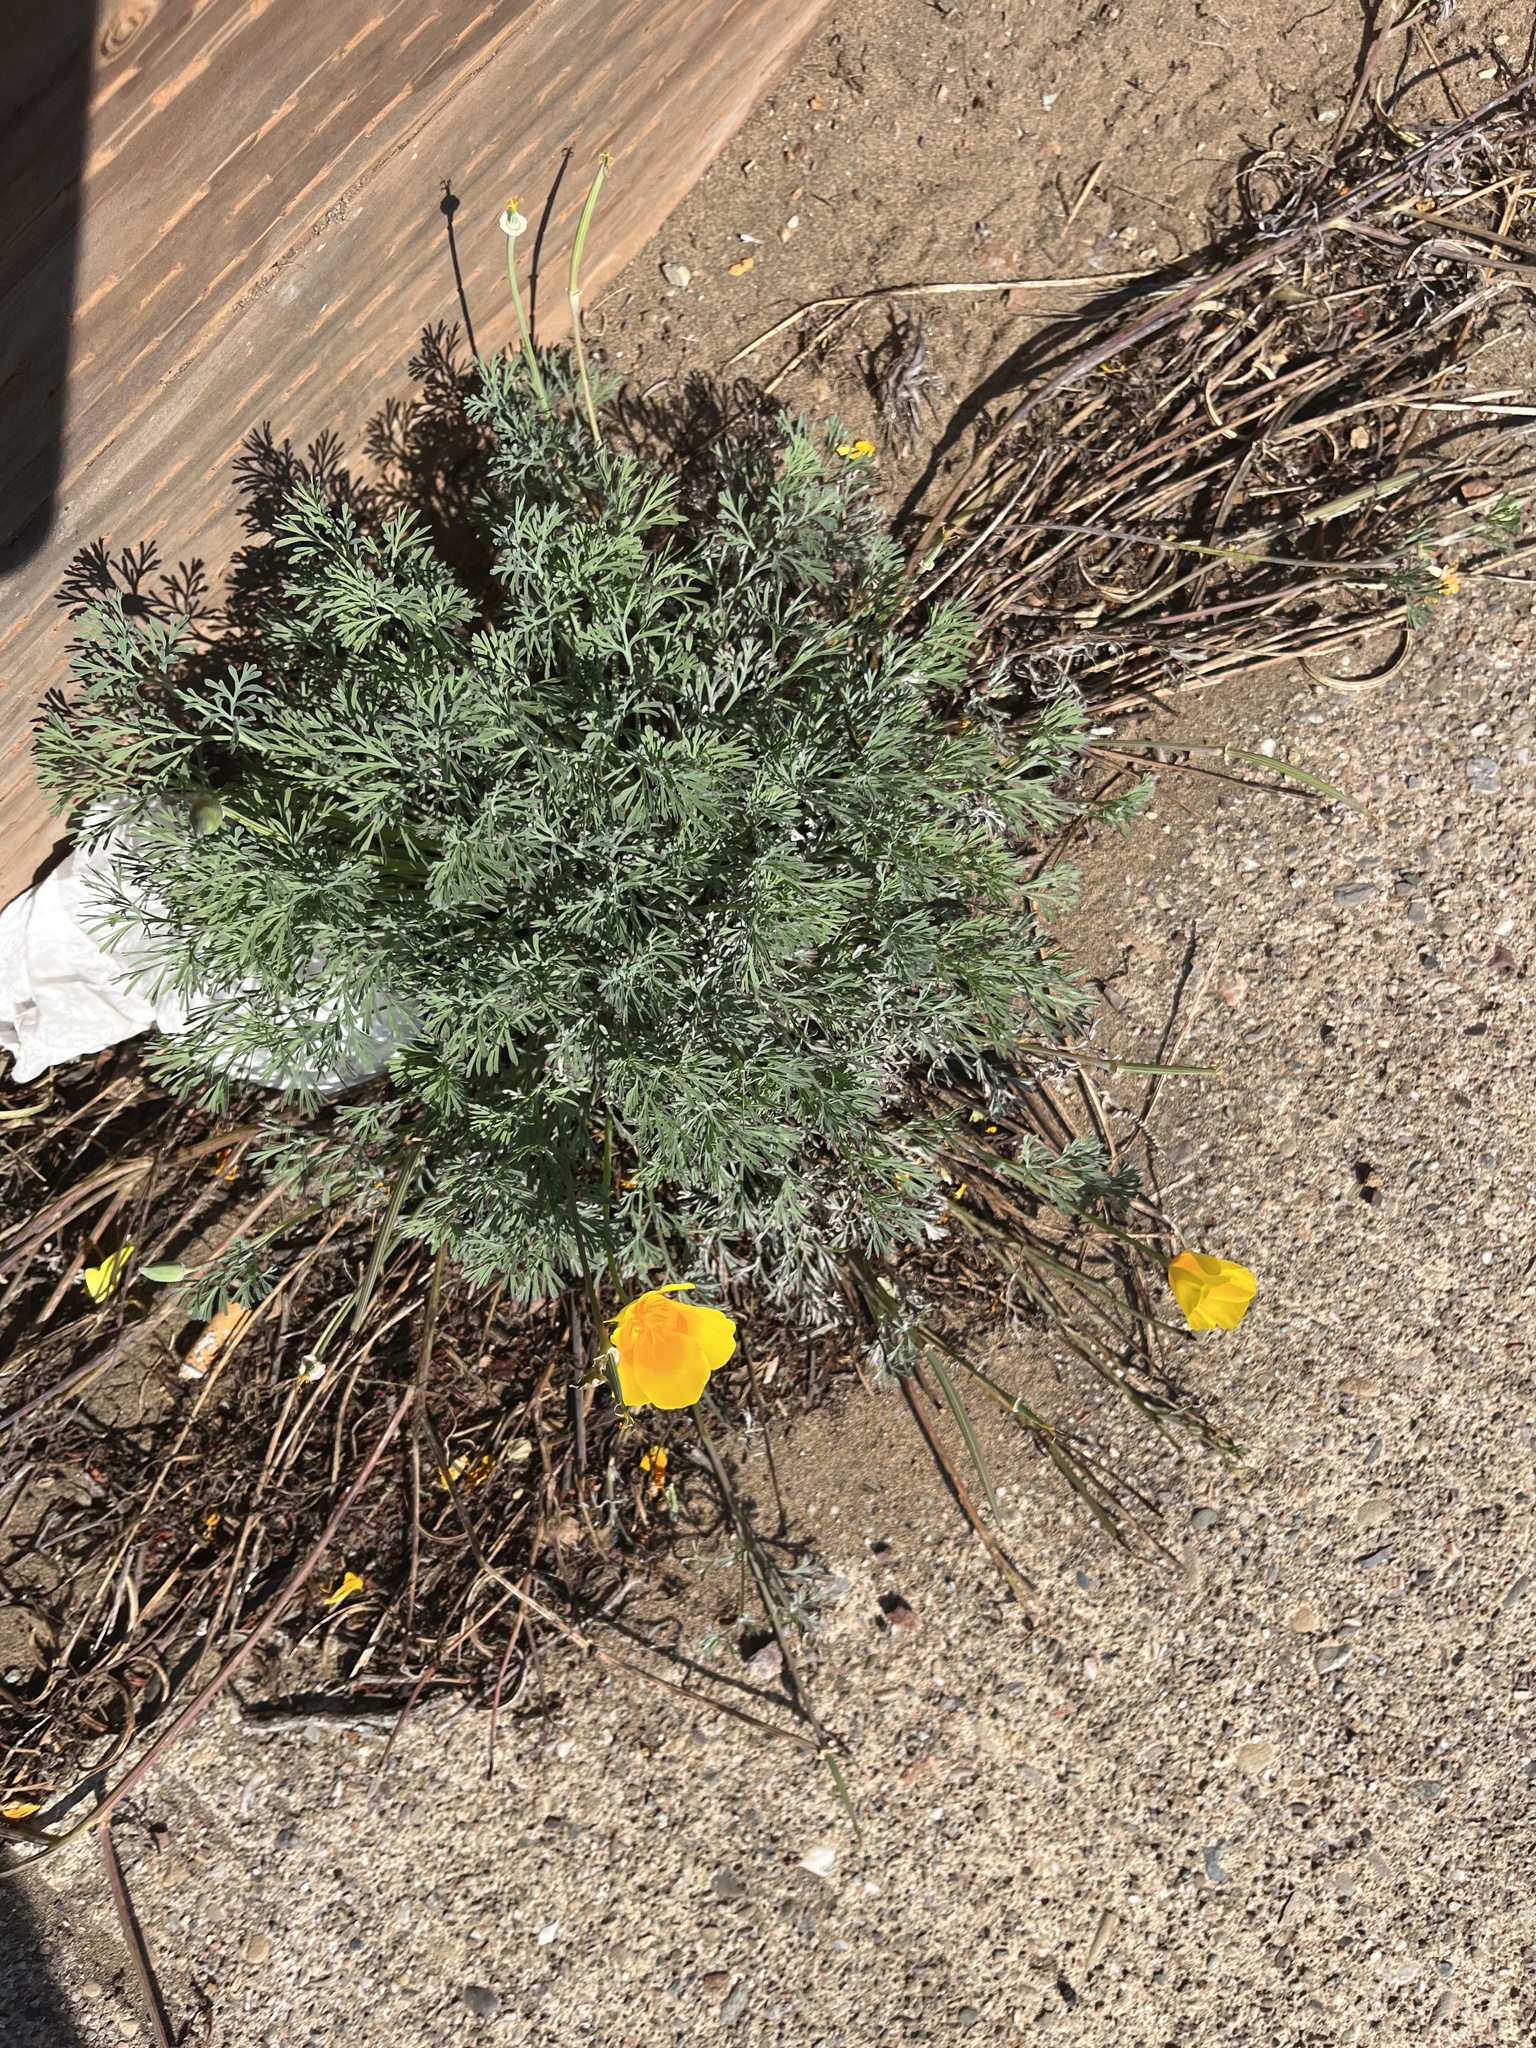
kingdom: Plantae
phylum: Tracheophyta
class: Magnoliopsida
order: Ranunculales
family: Papaveraceae
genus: Eschscholzia
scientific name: Eschscholzia californica
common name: California poppy
